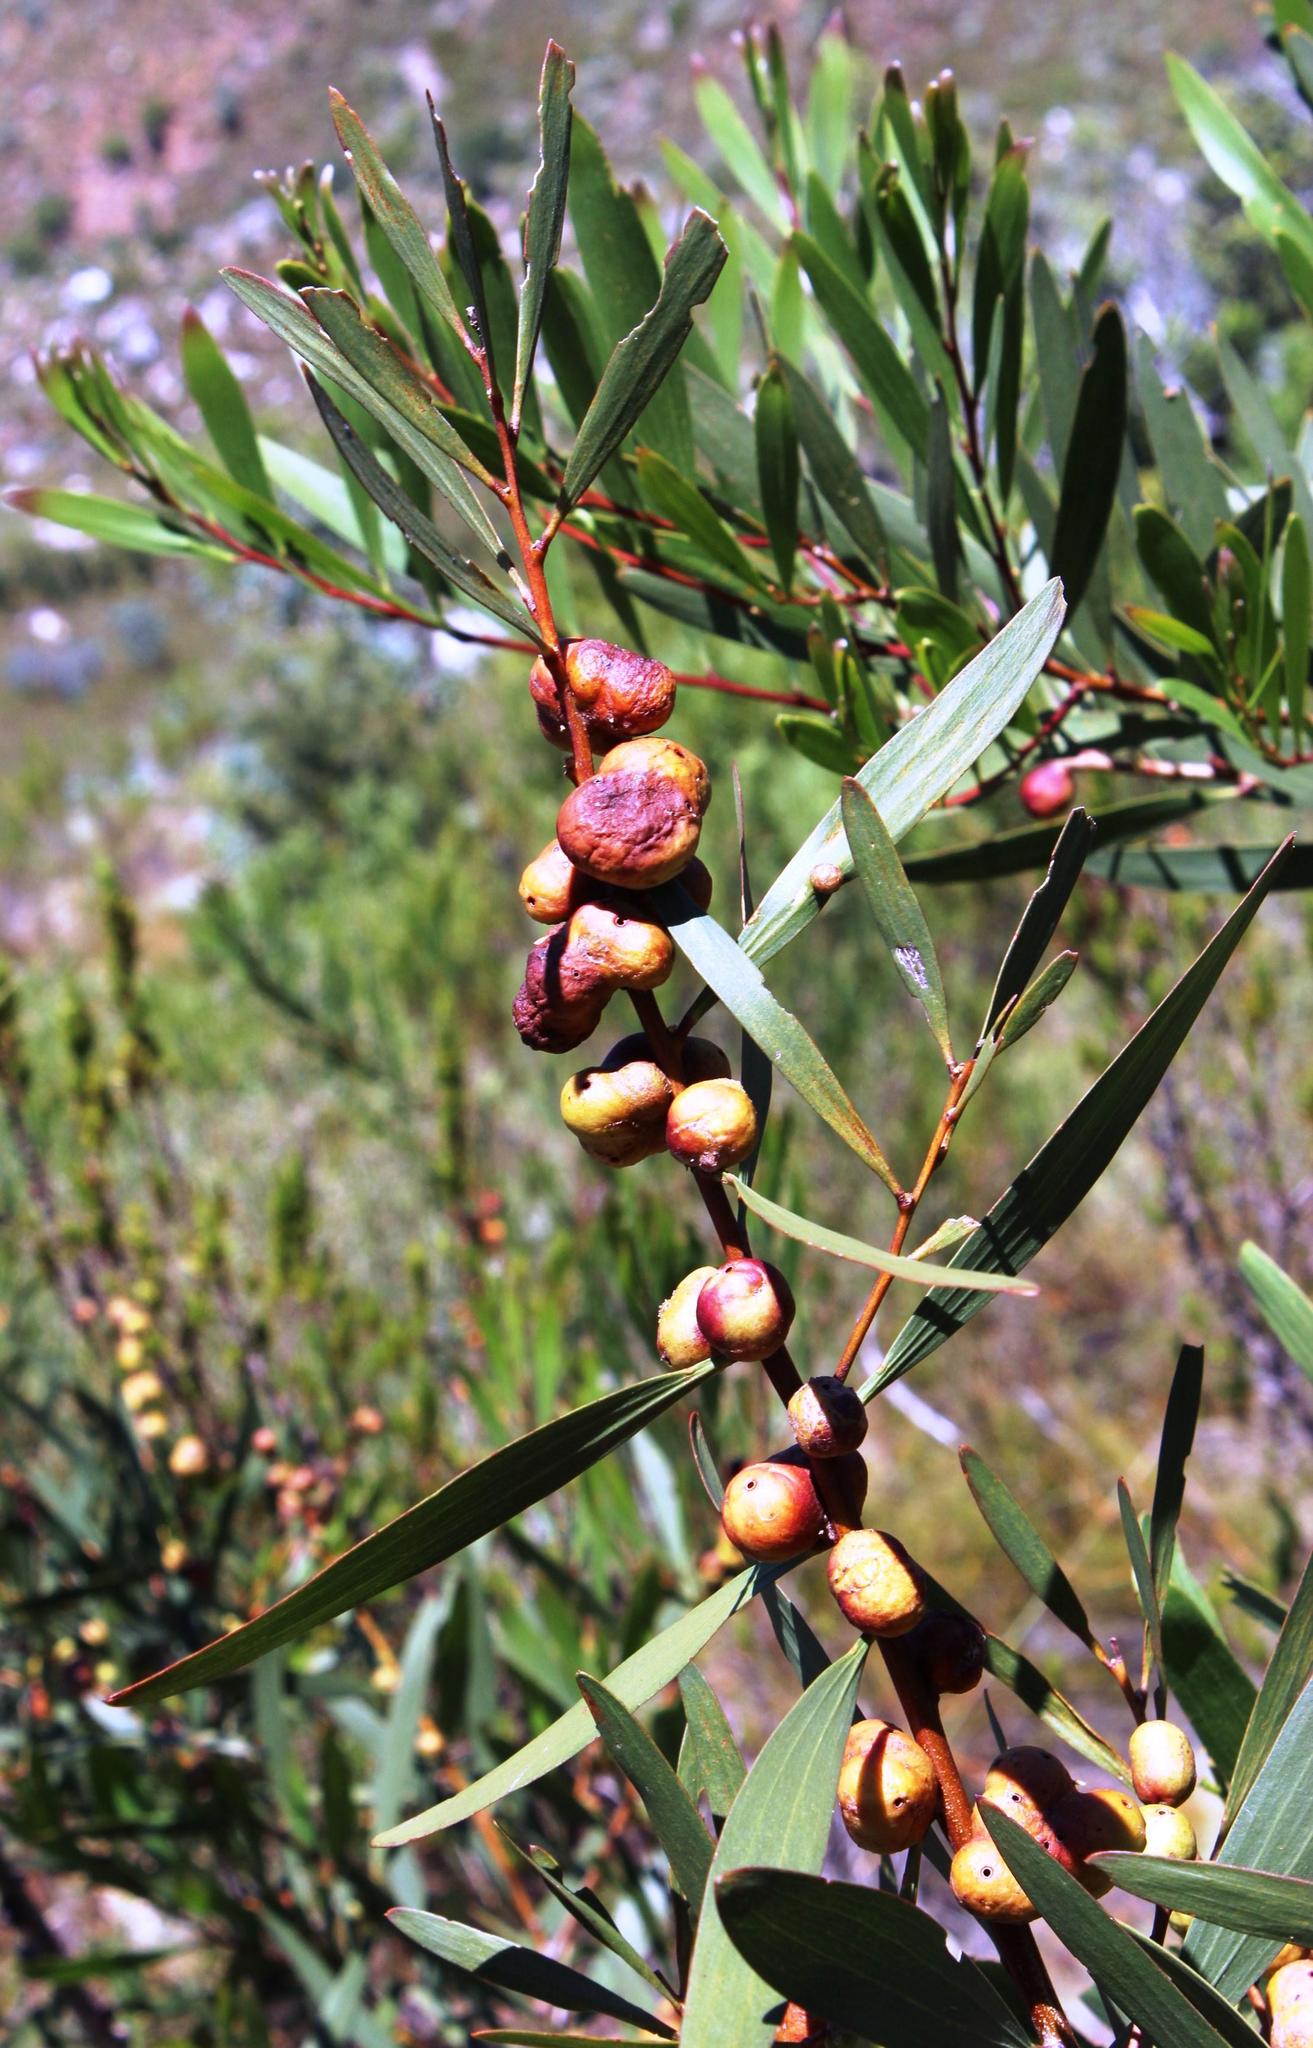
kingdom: Animalia
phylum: Arthropoda
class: Insecta
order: Hymenoptera
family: Pteromalidae
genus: Trichilogaster
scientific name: Trichilogaster acaciaelongifoliae
